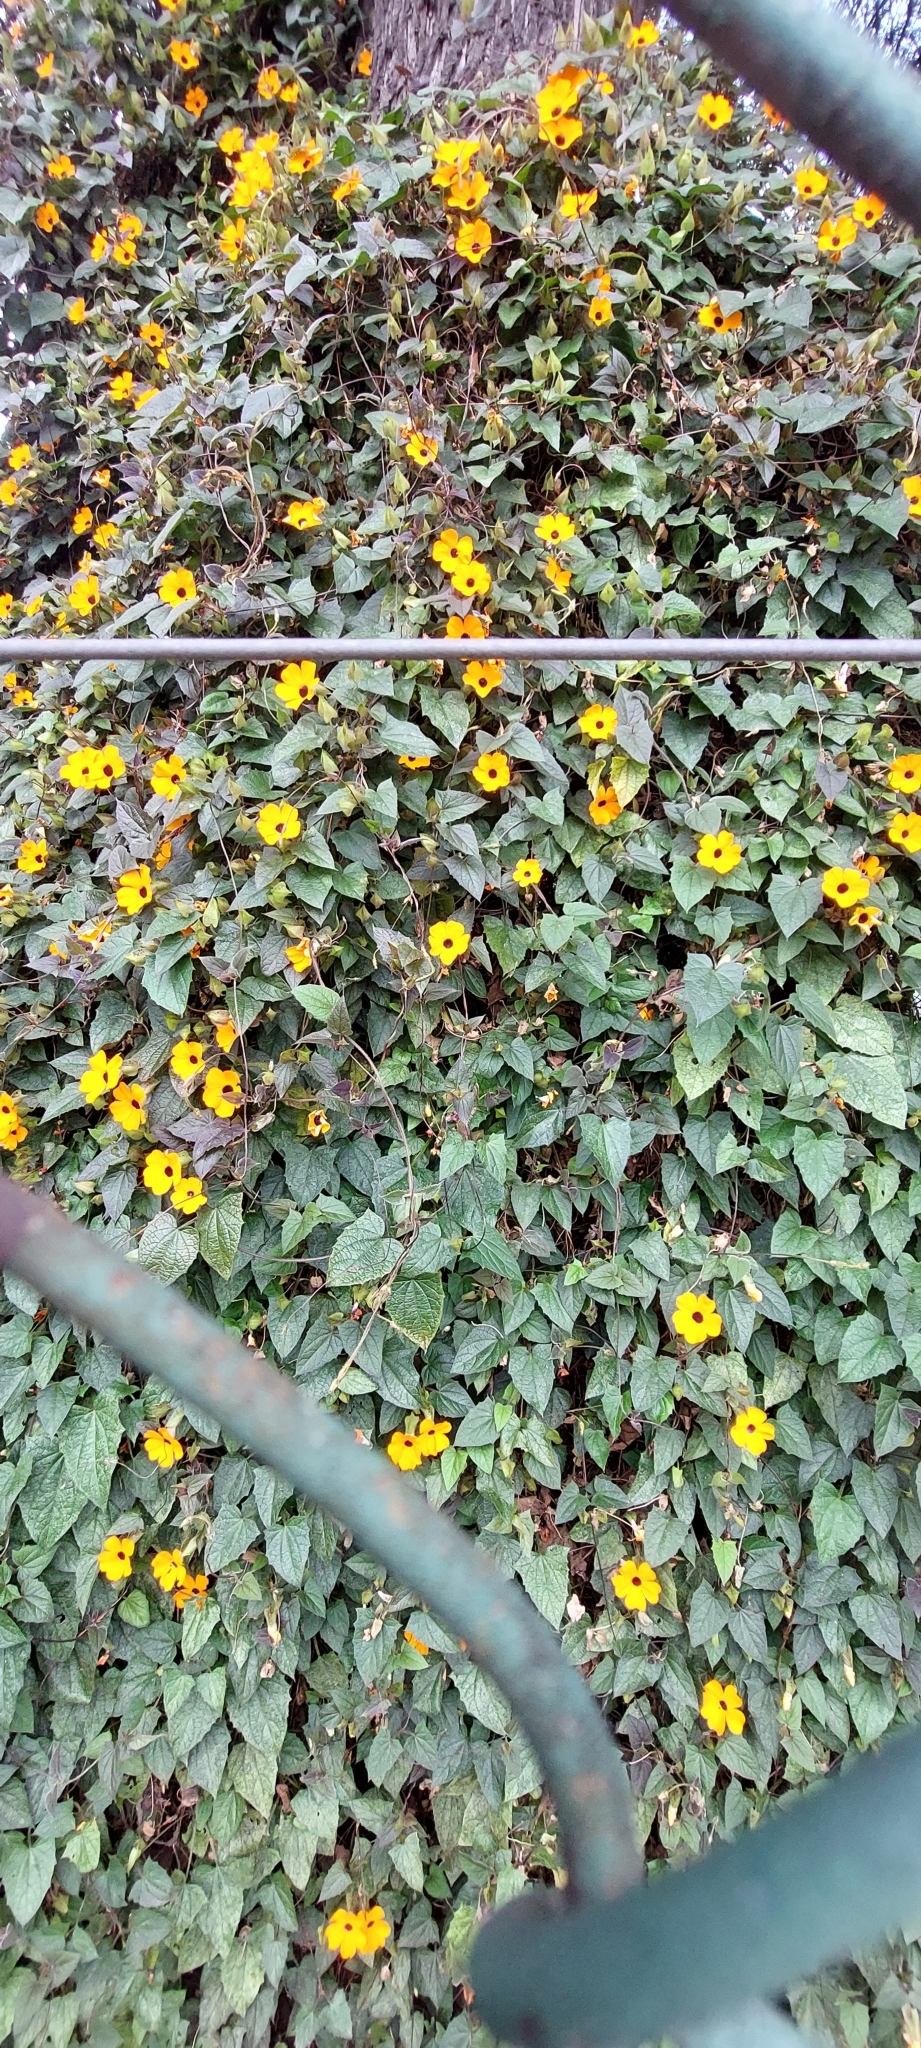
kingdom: Plantae
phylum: Tracheophyta
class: Magnoliopsida
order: Lamiales
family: Acanthaceae
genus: Thunbergia
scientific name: Thunbergia alata
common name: Blackeyed susan vine
